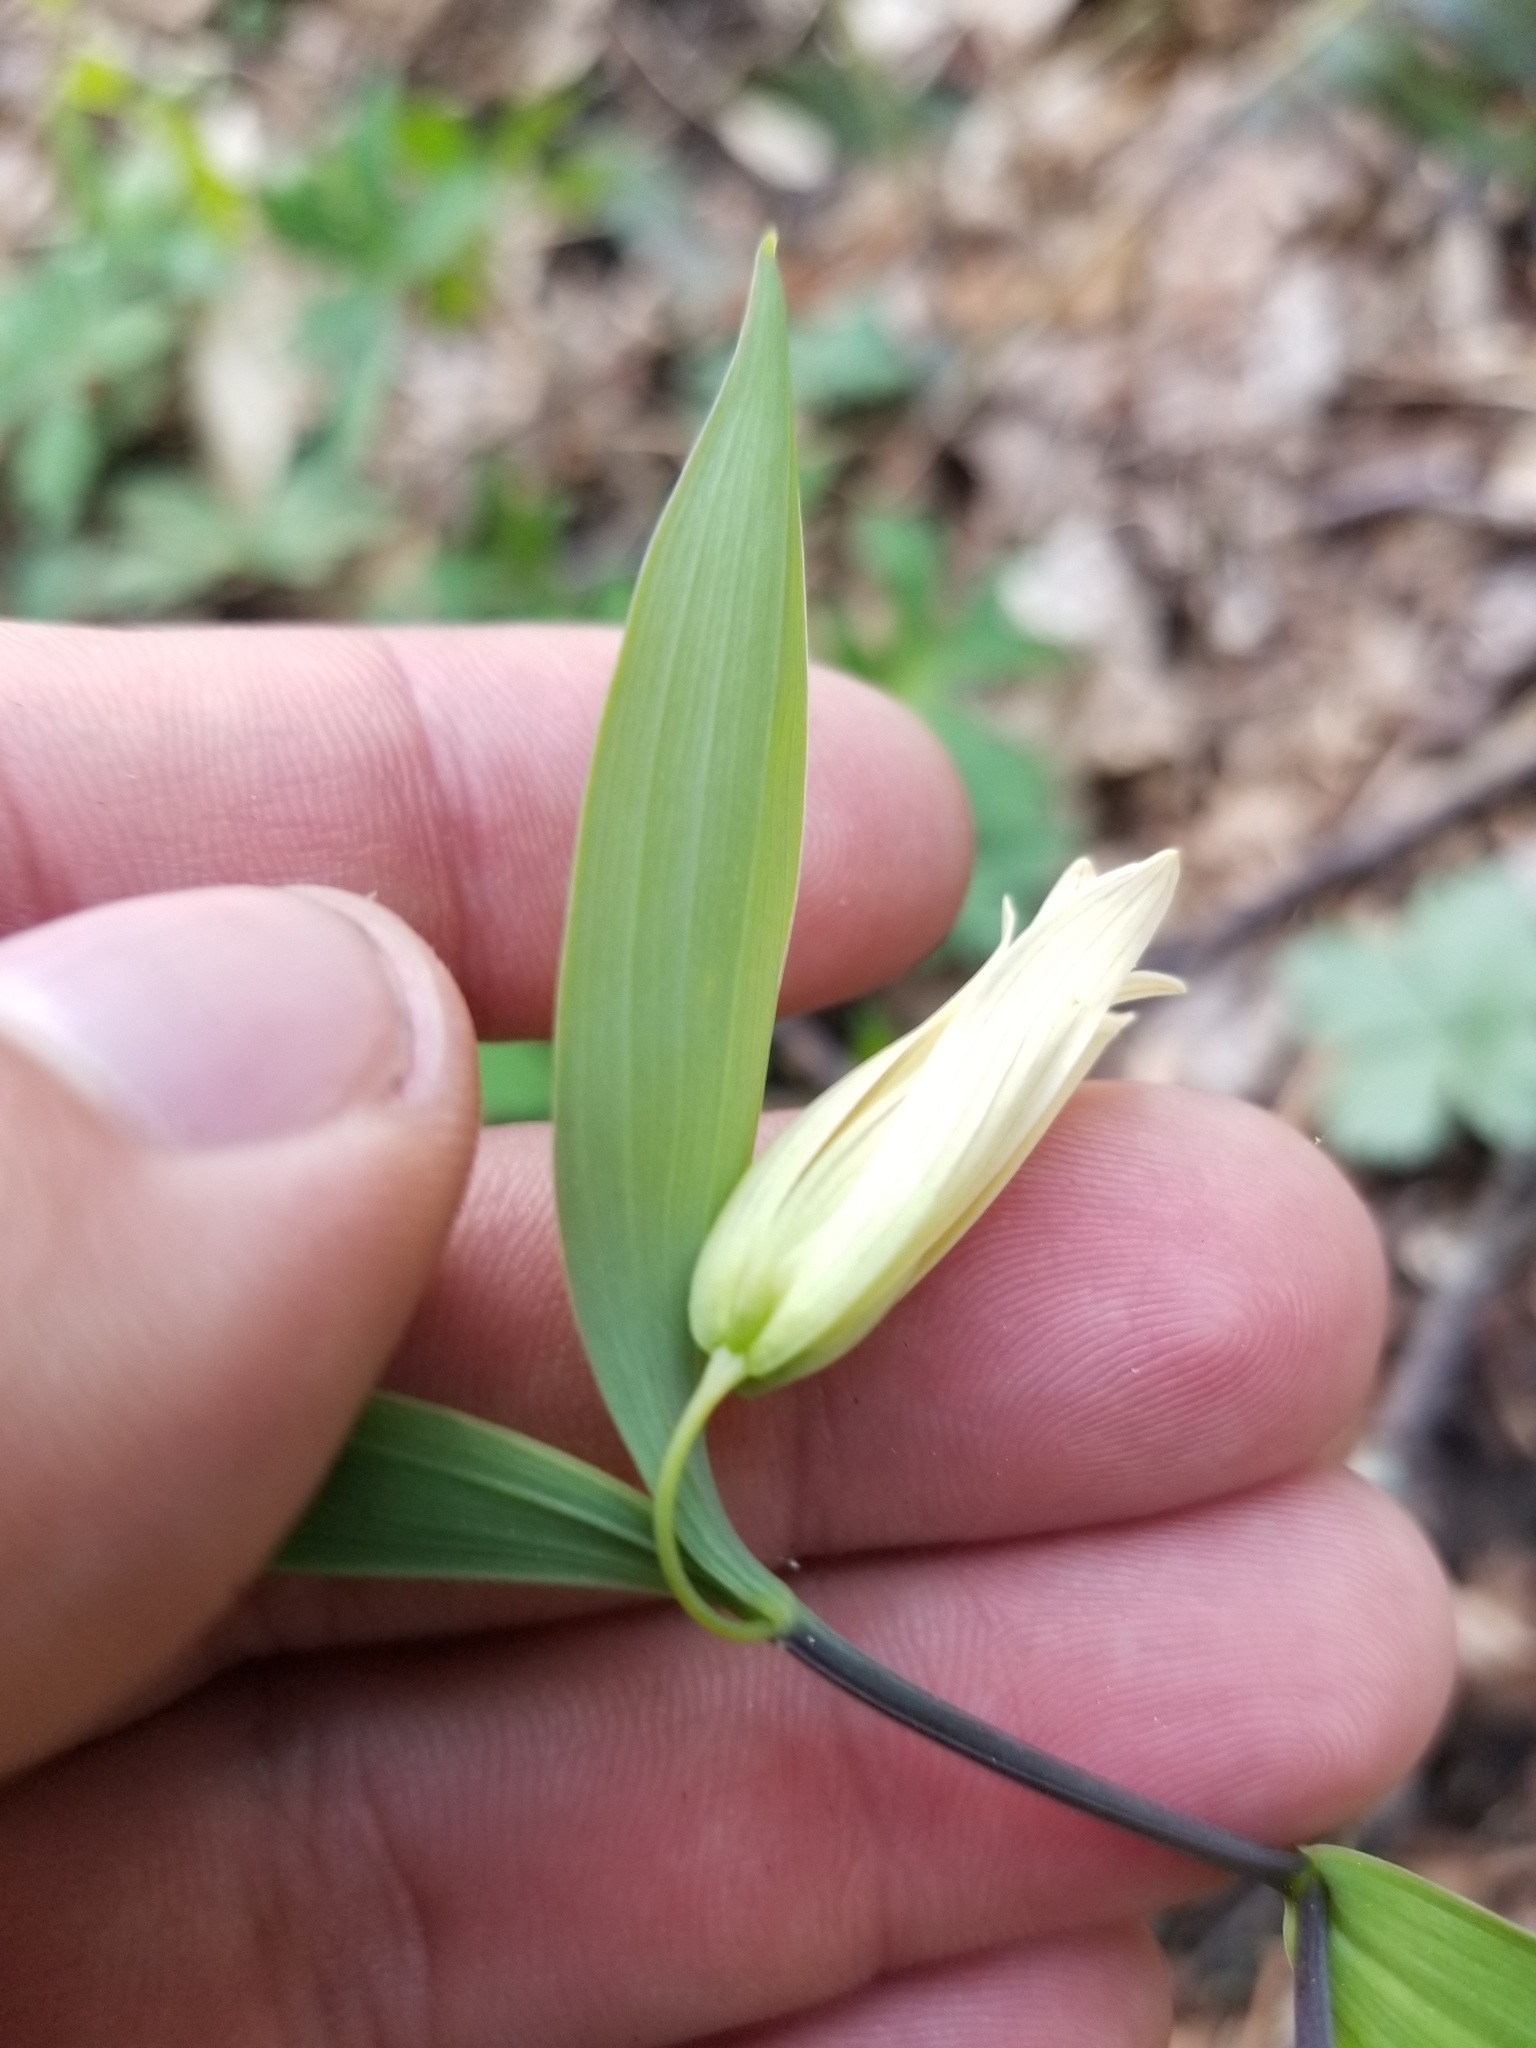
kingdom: Plantae
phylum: Tracheophyta
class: Liliopsida
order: Liliales
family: Colchicaceae
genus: Uvularia
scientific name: Uvularia sessilifolia
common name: Straw-lily
